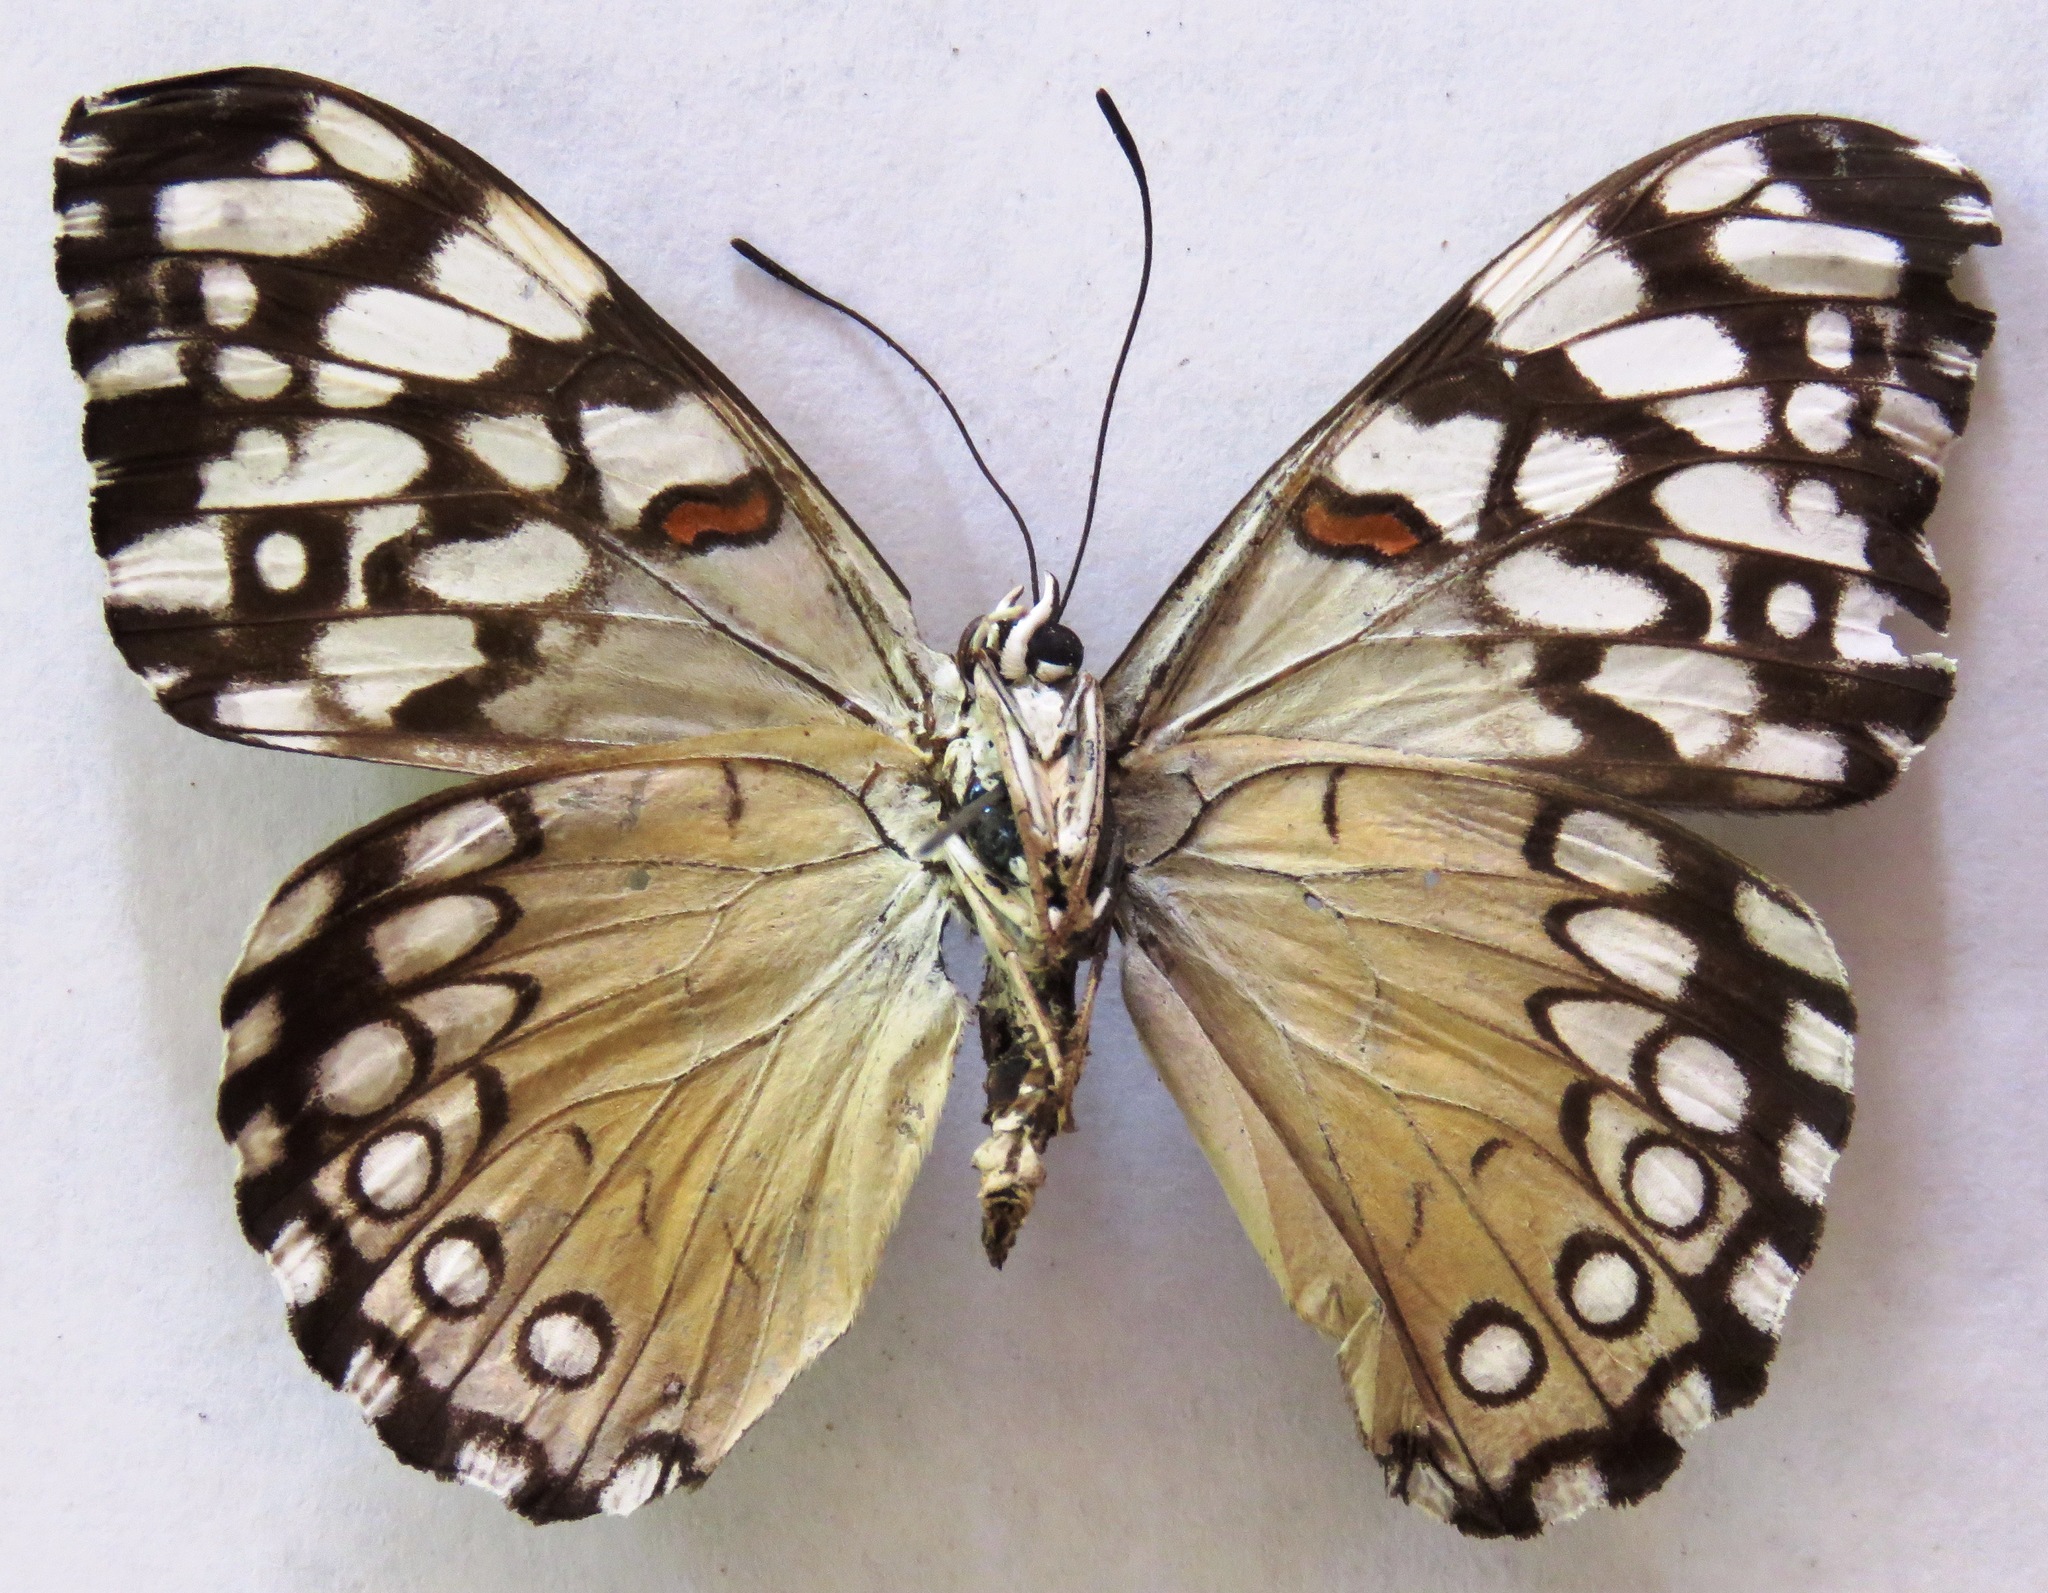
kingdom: Animalia
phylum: Arthropoda
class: Insecta
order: Lepidoptera
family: Nymphalidae
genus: Hamadryas
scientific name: Hamadryas feronia
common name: Variable cracker
